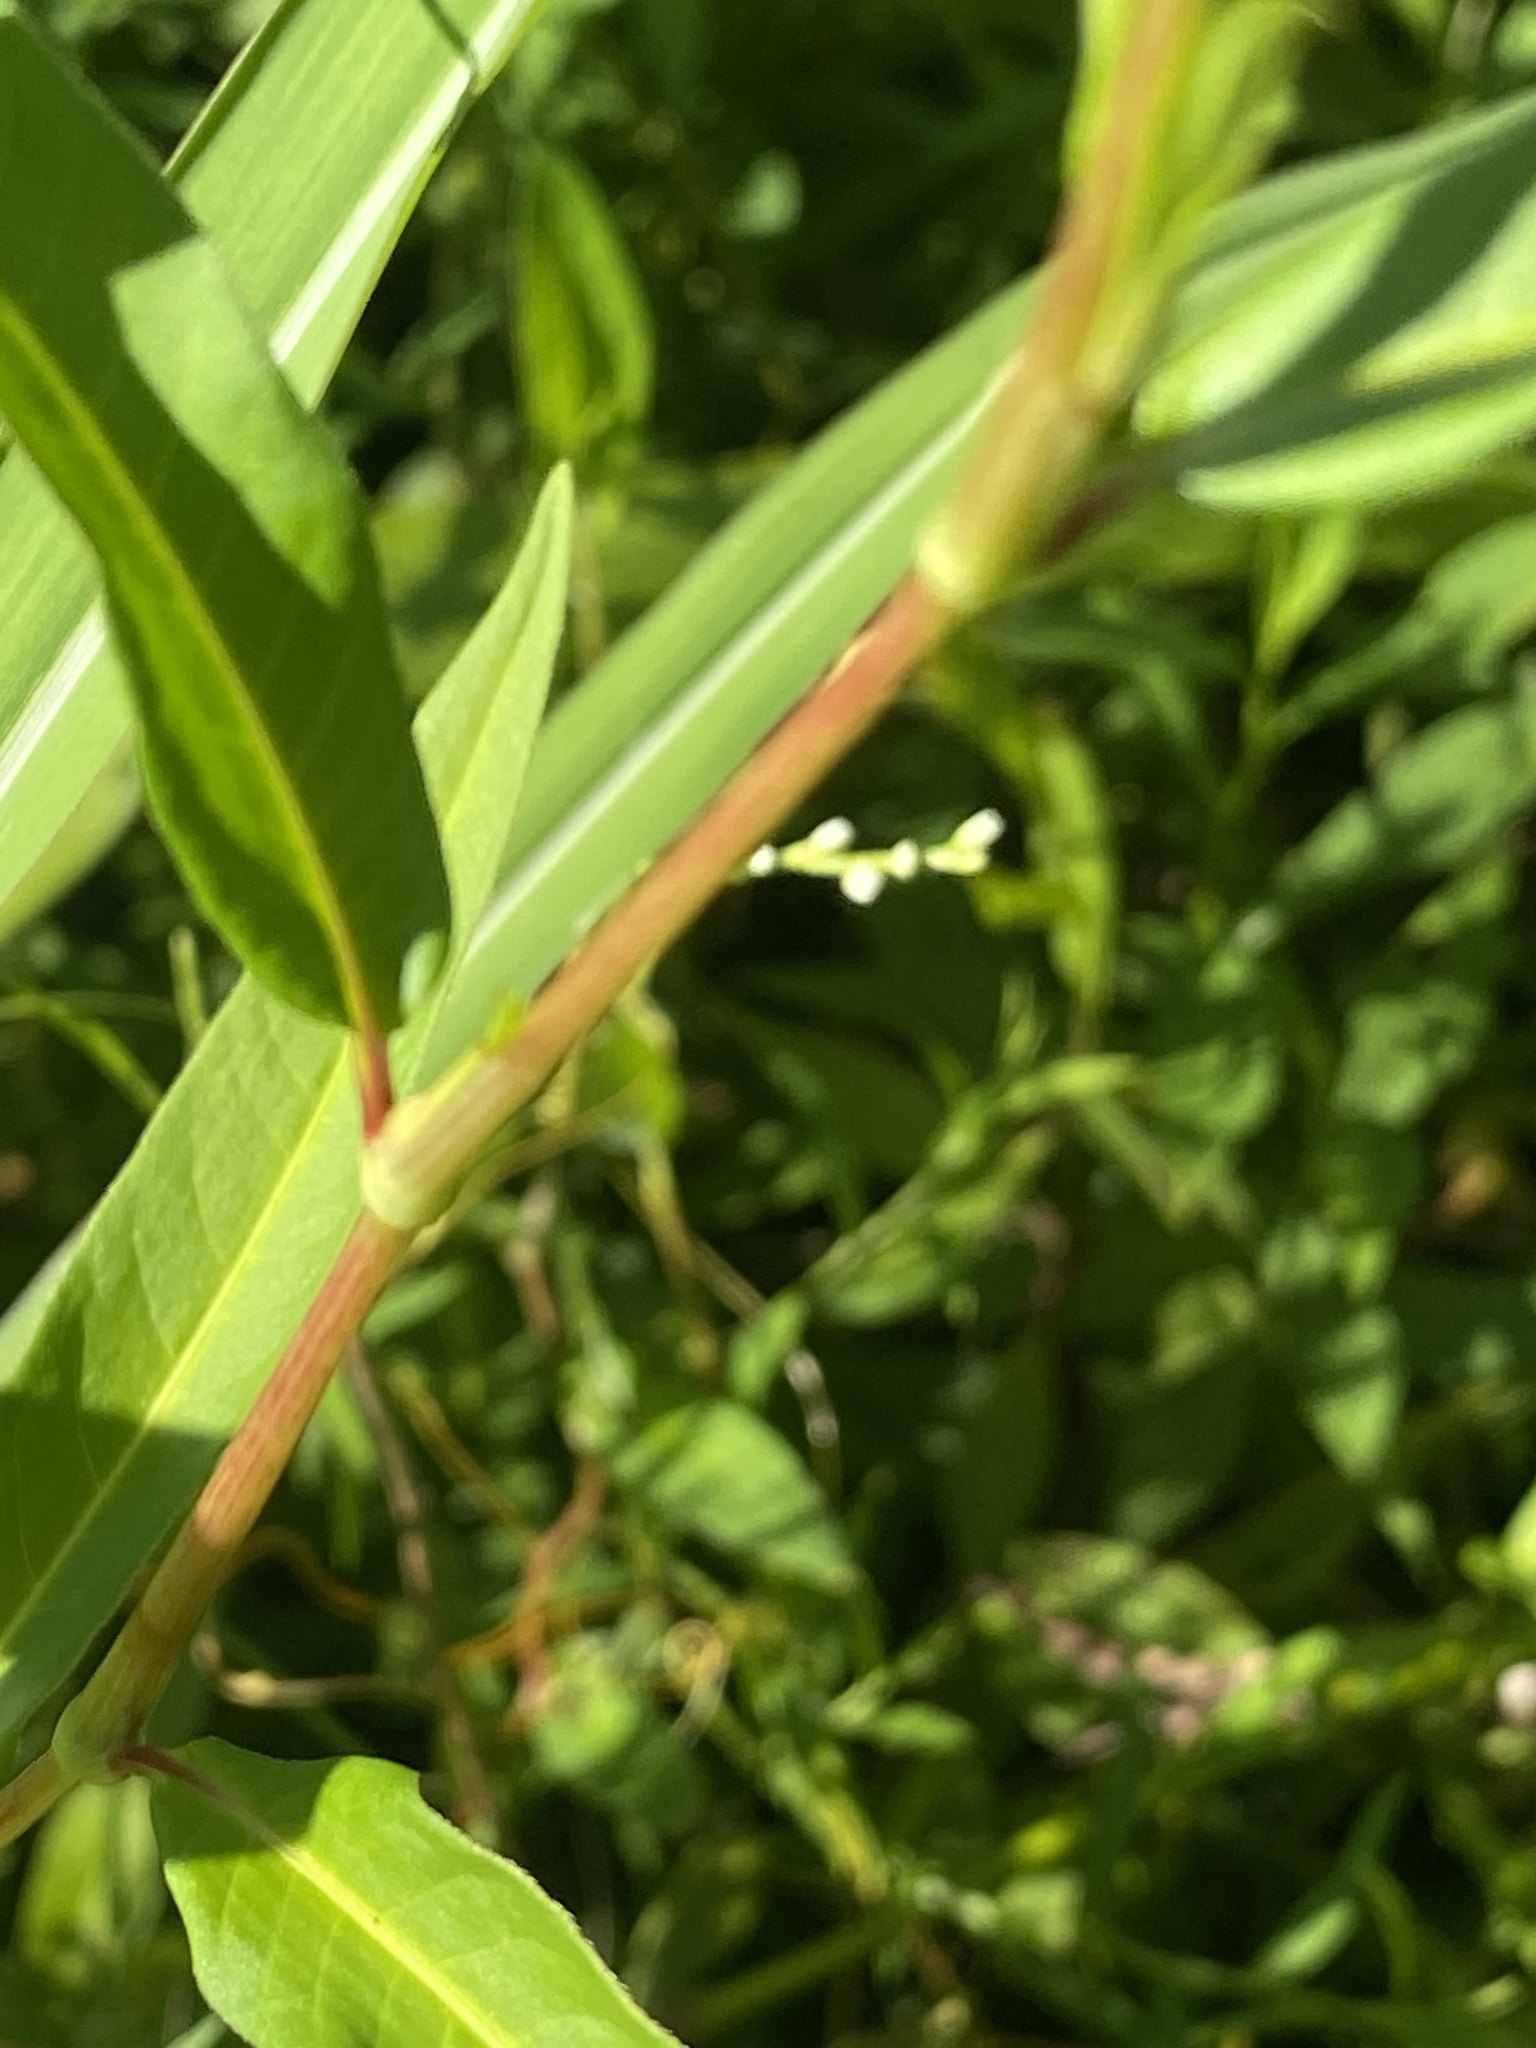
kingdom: Plantae
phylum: Tracheophyta
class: Magnoliopsida
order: Caryophyllales
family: Polygonaceae
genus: Persicaria
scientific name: Persicaria pensylvanica
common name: Pinkweed
